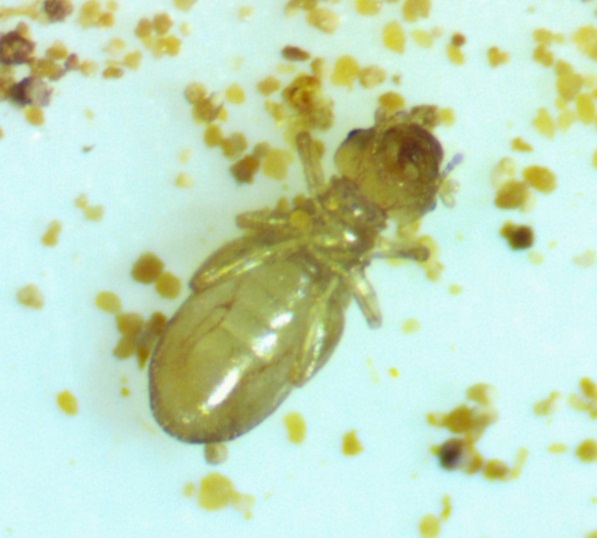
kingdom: Animalia
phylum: Arthropoda
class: Insecta
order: Psocodea
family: Liposcelididae
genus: Liposcelis
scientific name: Liposcelis bostrychophila
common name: Bark lice
